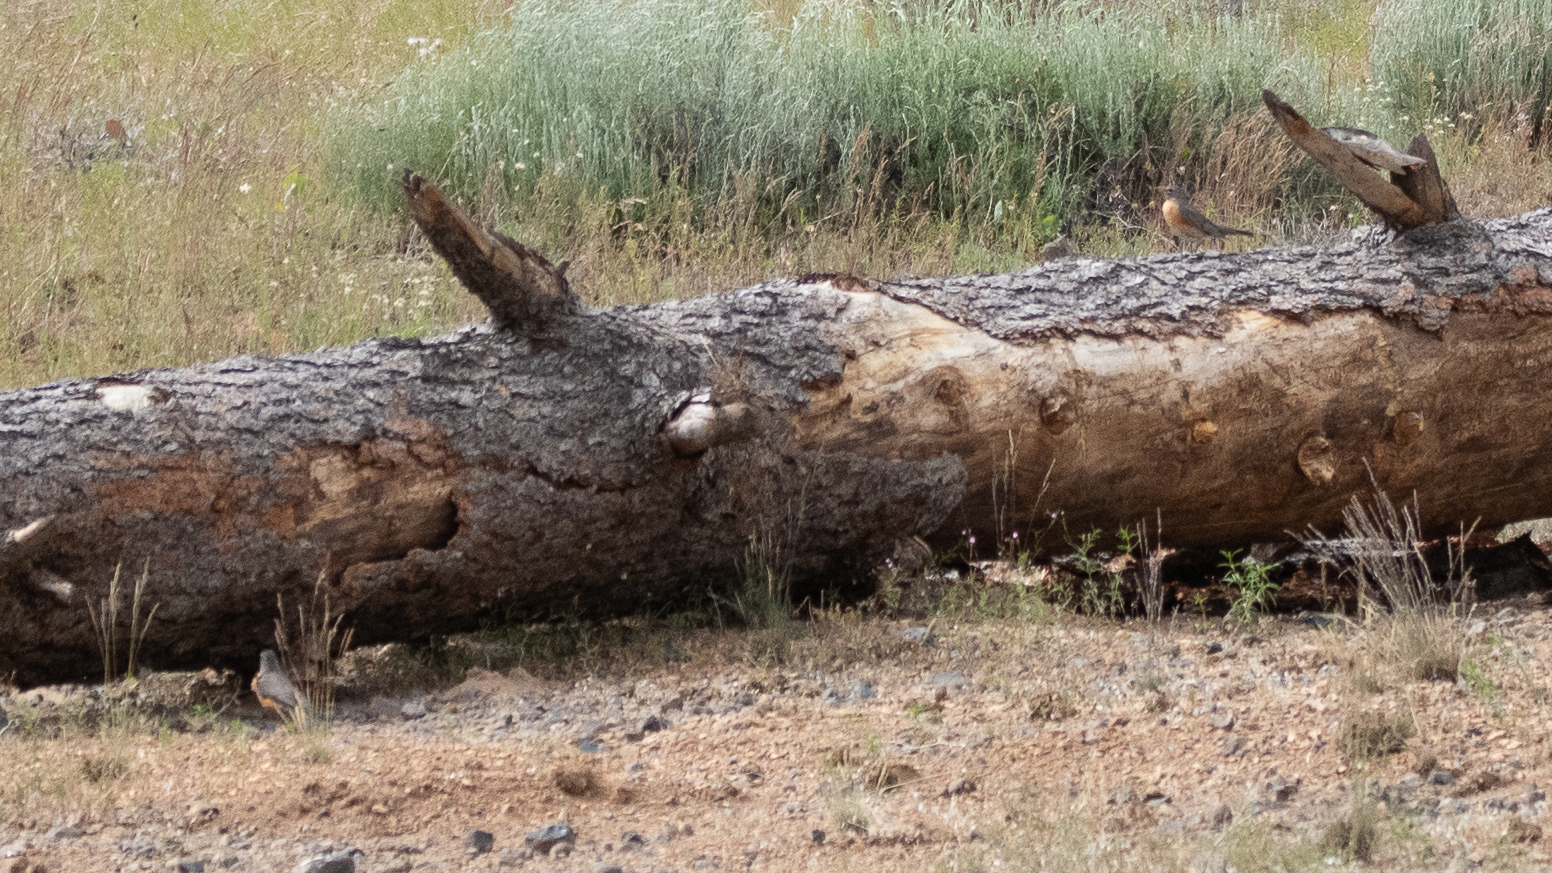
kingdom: Animalia
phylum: Chordata
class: Aves
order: Passeriformes
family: Turdidae
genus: Turdus
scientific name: Turdus migratorius
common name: American robin
